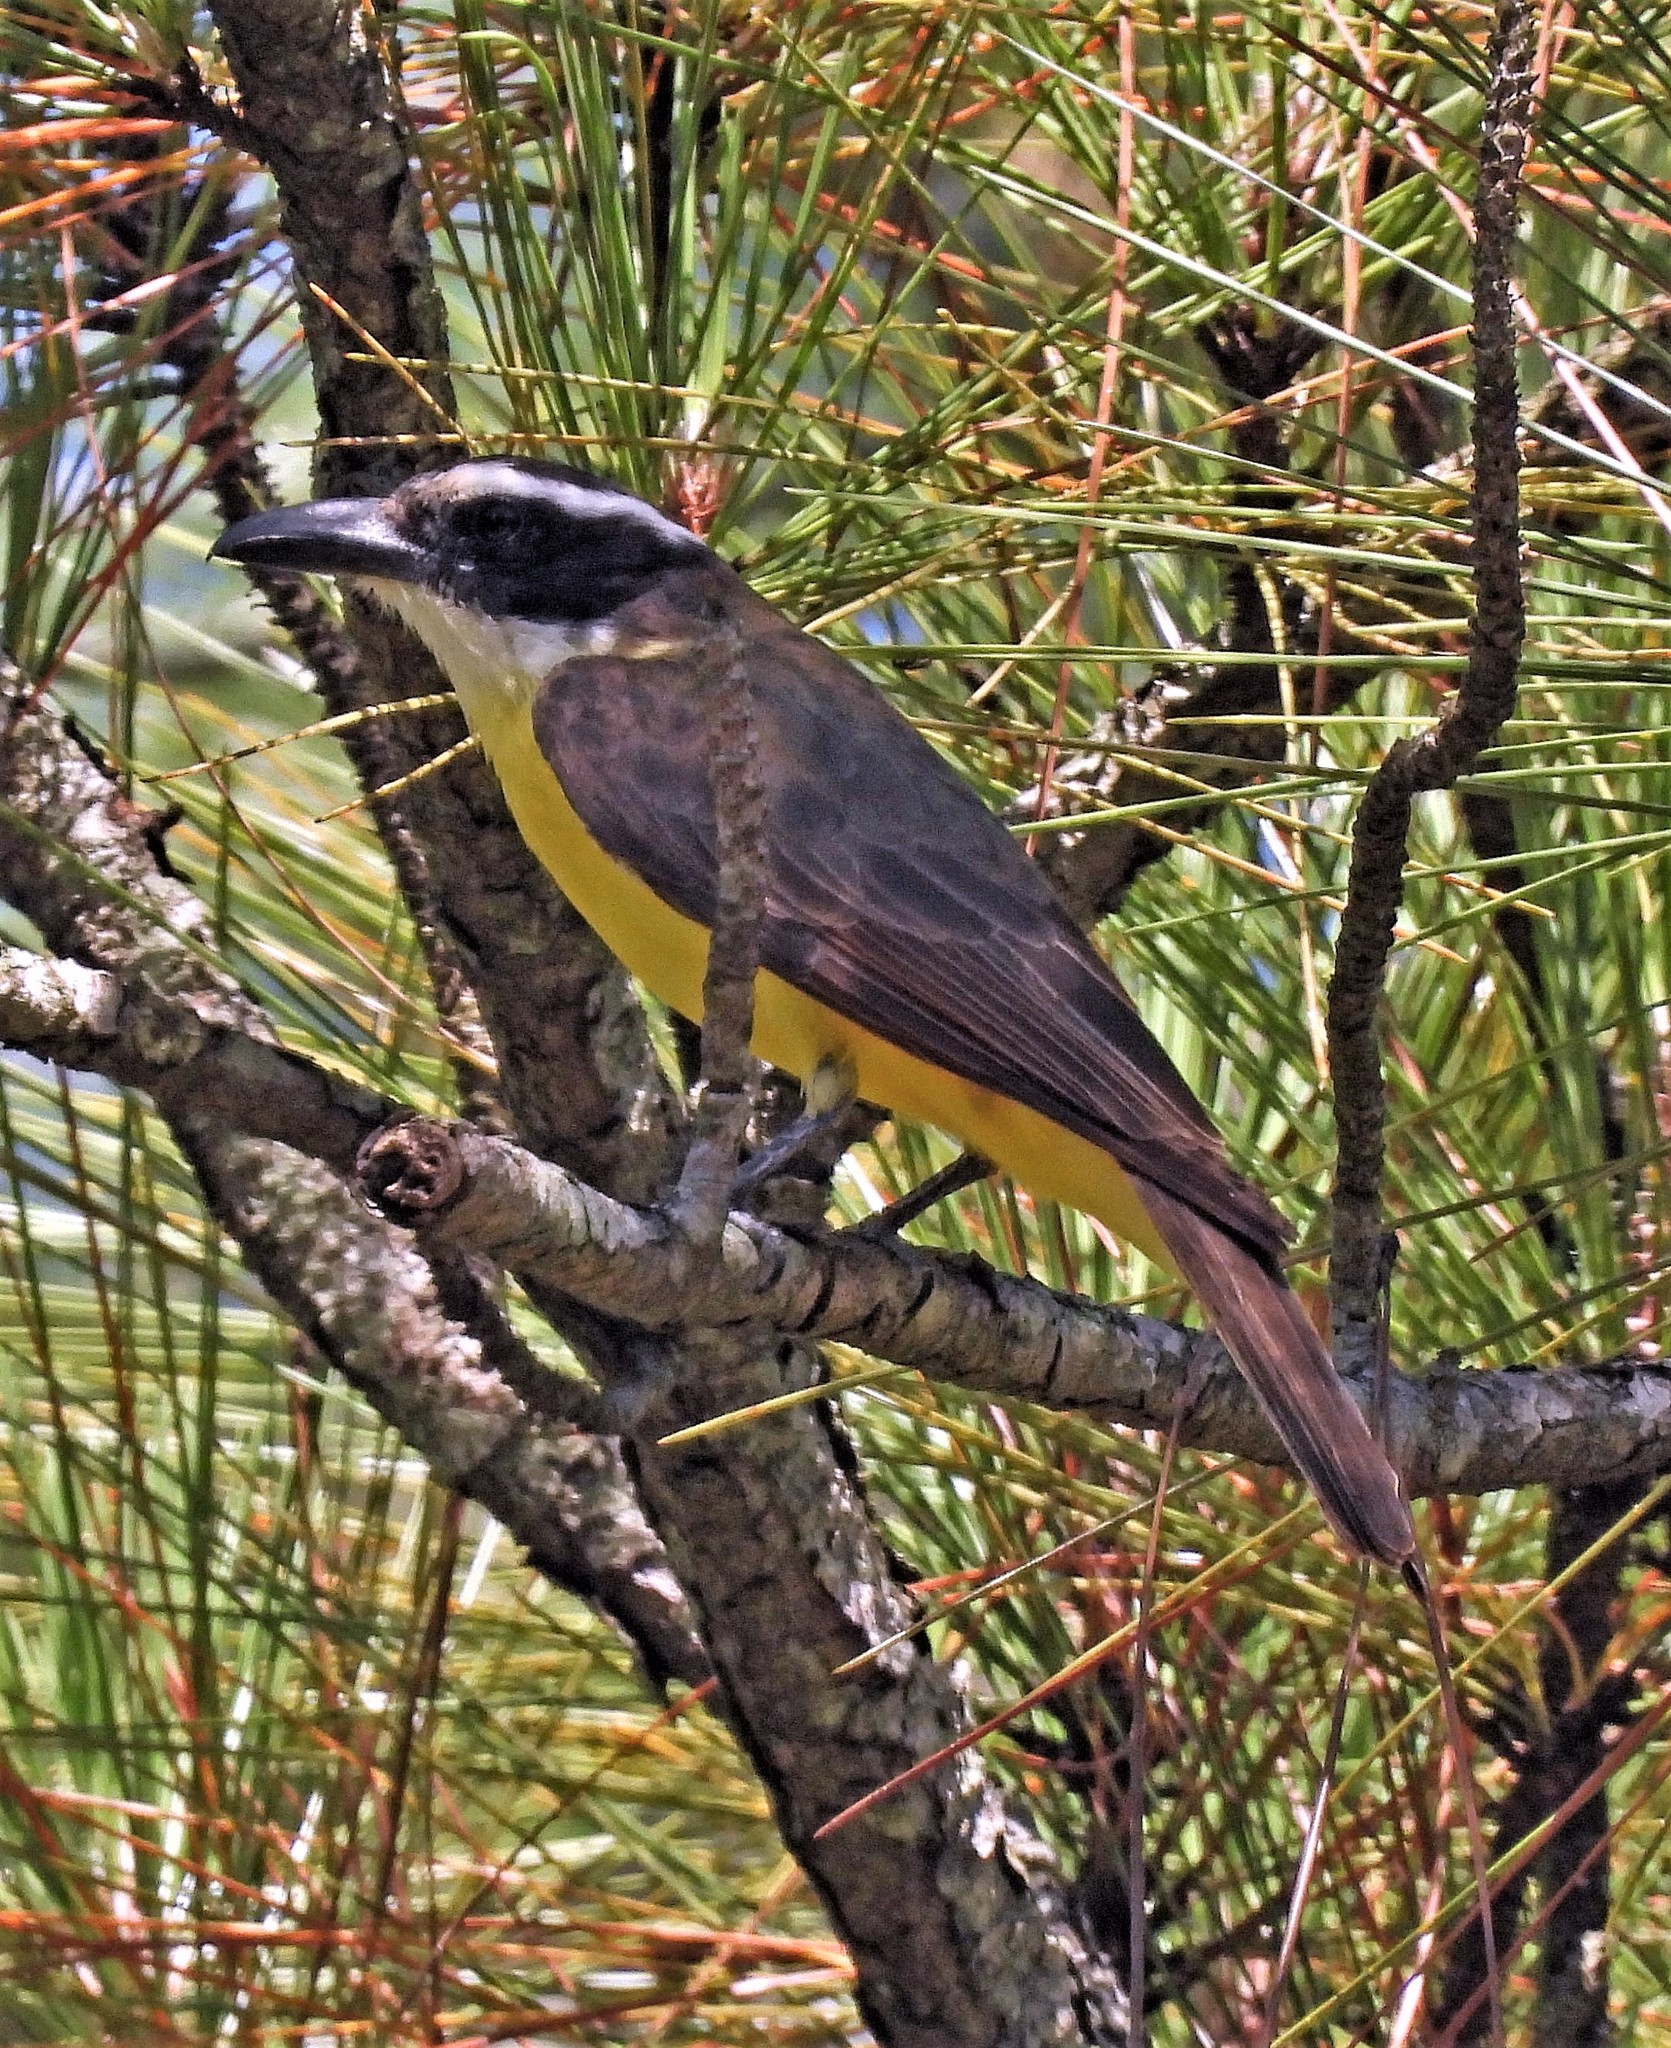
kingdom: Animalia
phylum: Chordata
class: Aves
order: Passeriformes
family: Tyrannidae
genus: Megarynchus
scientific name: Megarynchus pitangua
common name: Boat-billed flycatcher
